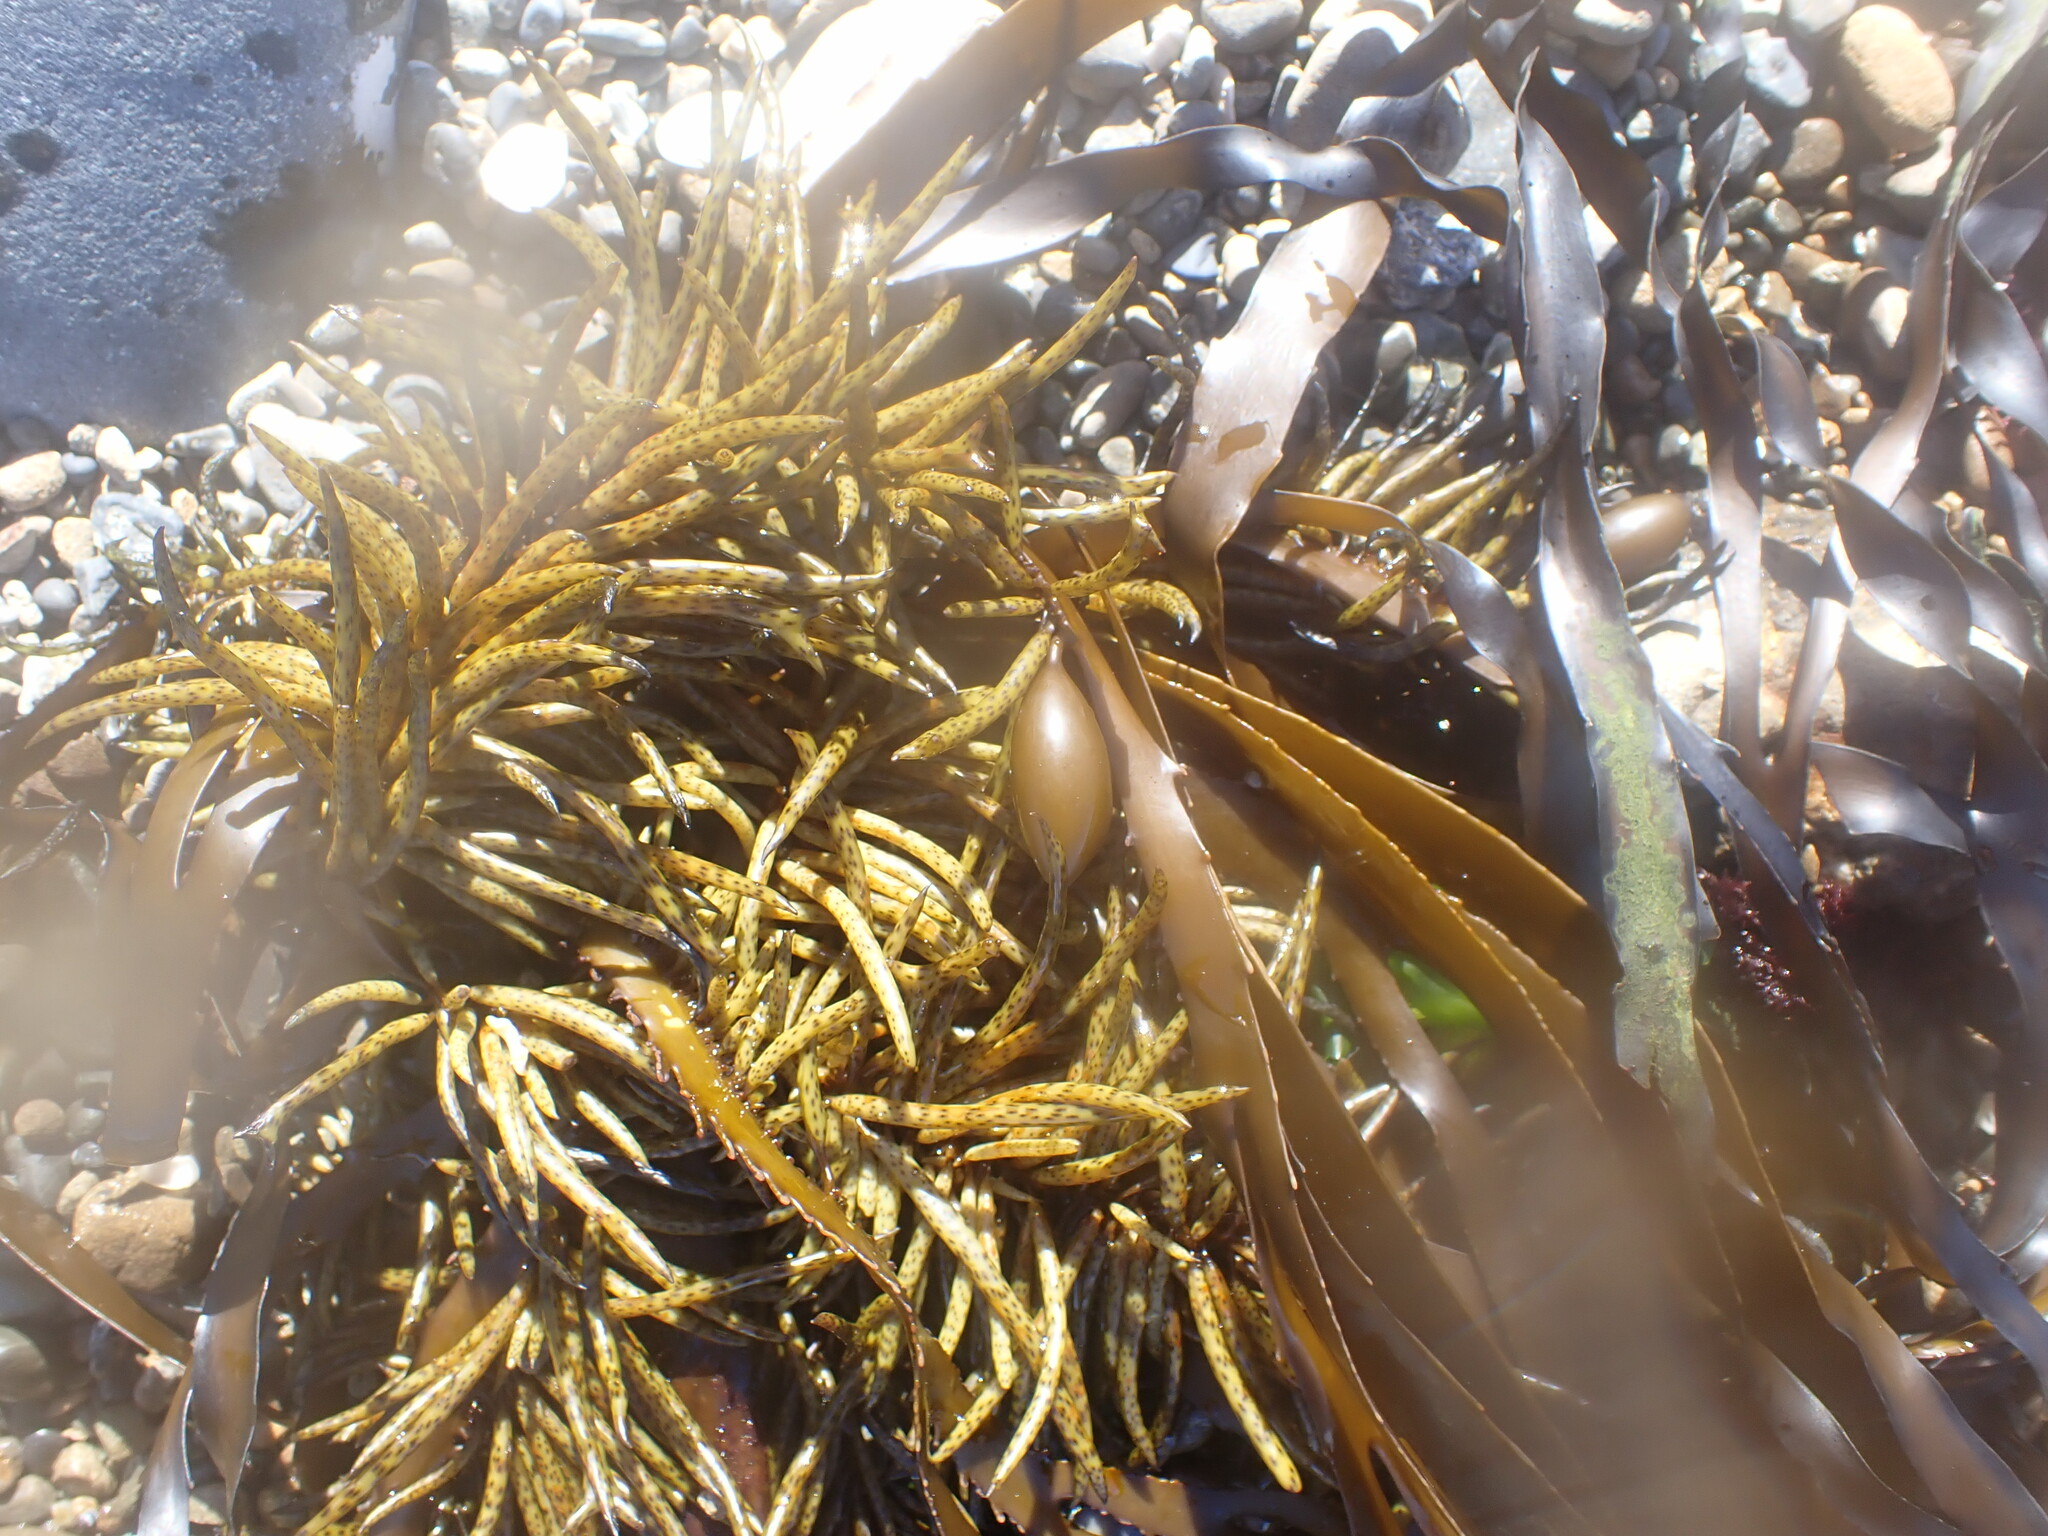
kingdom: Chromista
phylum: Ochrophyta
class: Phaeophyceae
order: Fucales
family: Seirococcaceae
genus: Marginariella
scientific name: Marginariella boryana
